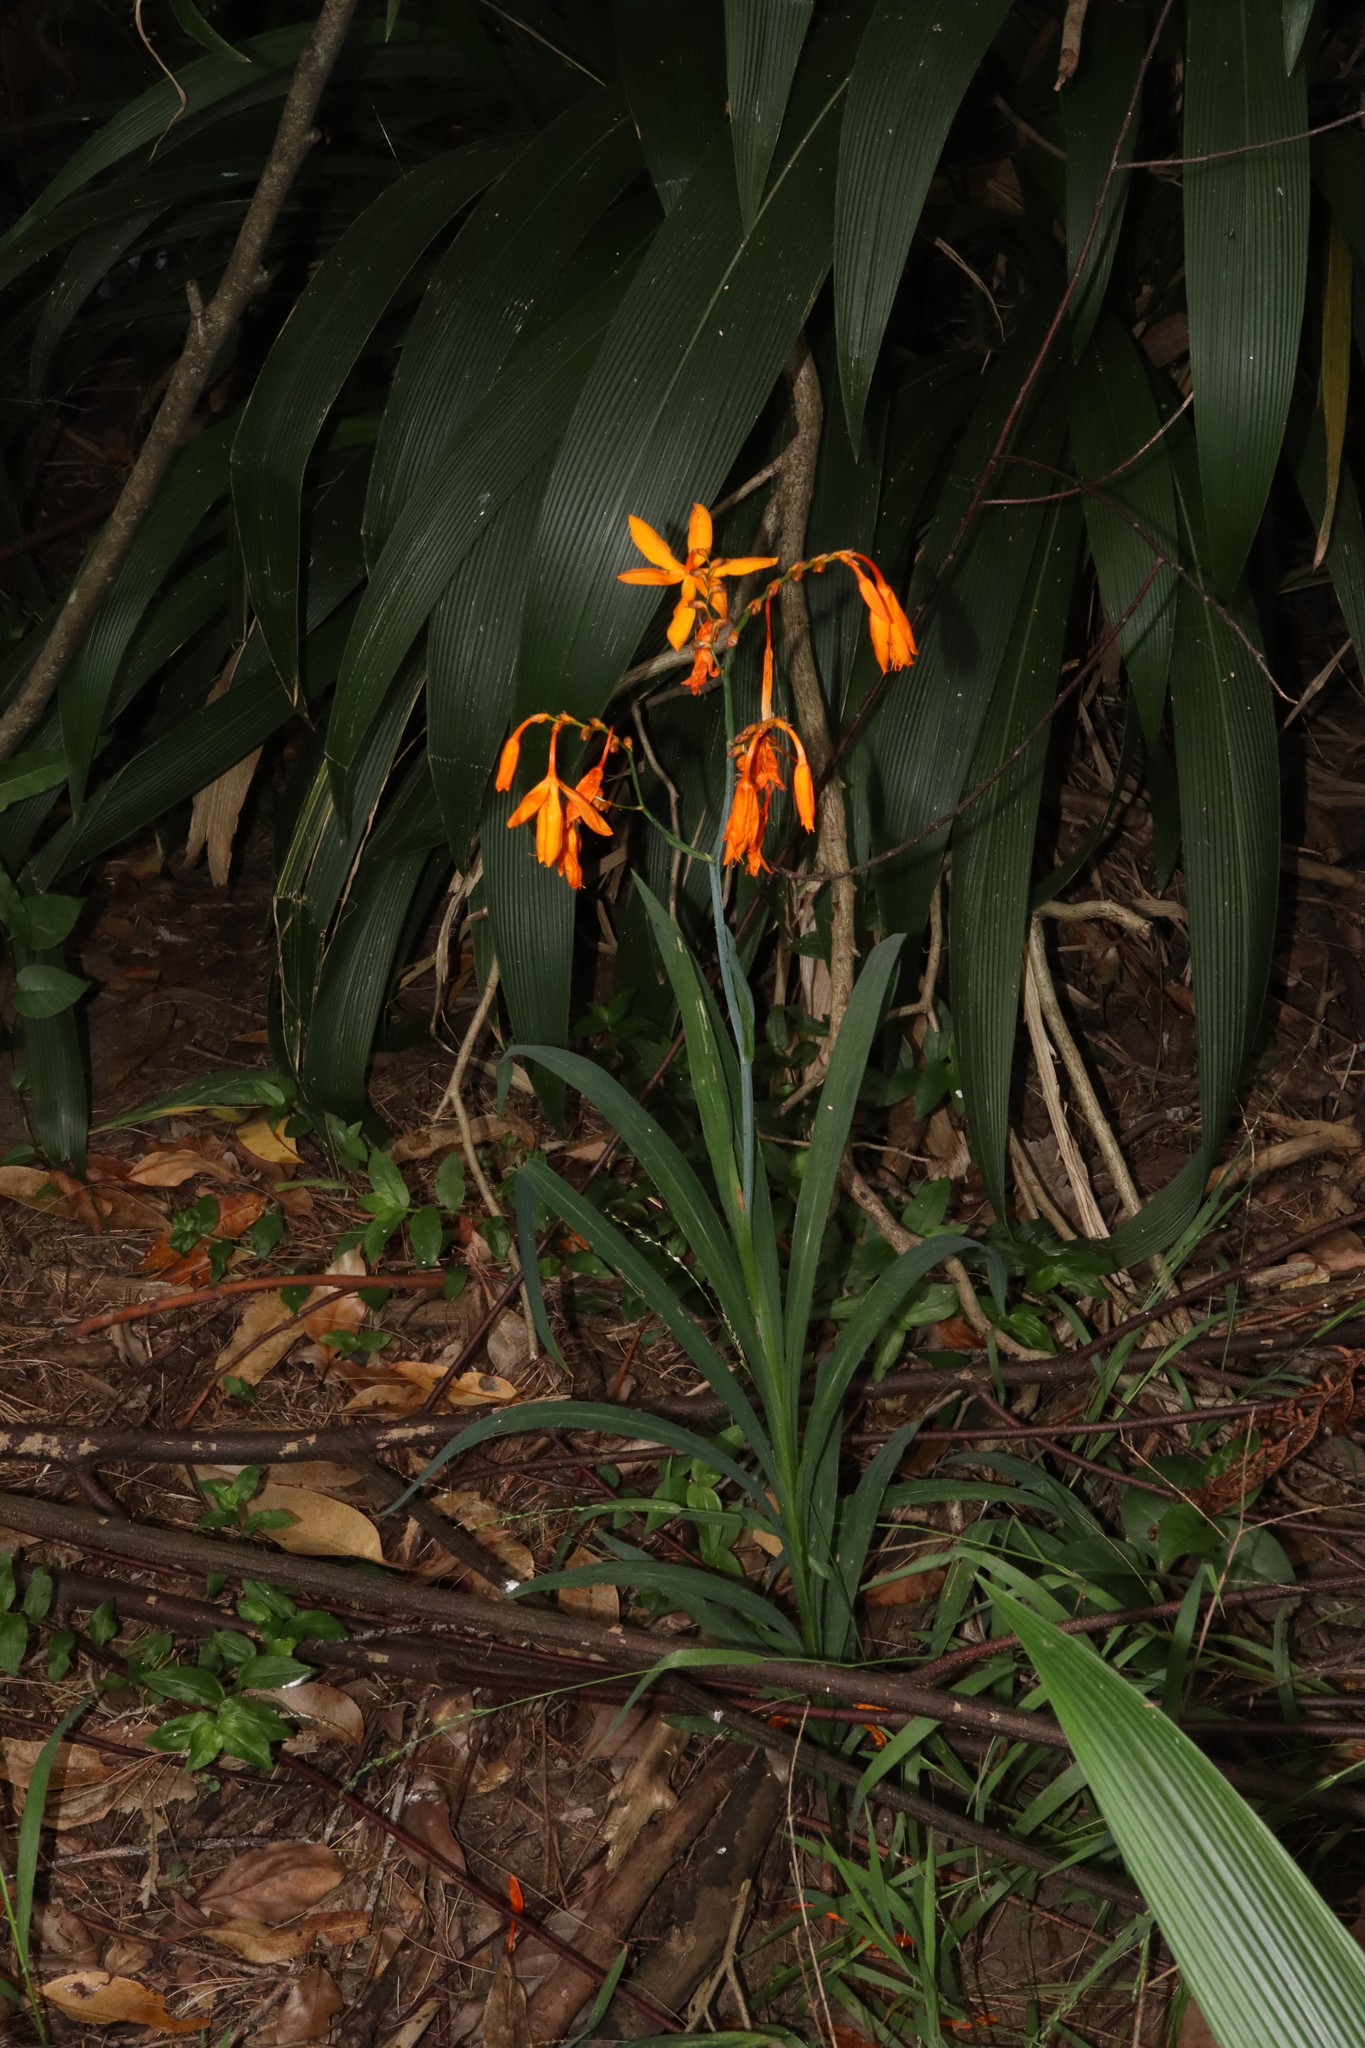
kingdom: Plantae
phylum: Tracheophyta
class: Liliopsida
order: Asparagales
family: Iridaceae
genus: Crocosmia
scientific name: Crocosmia aurea
